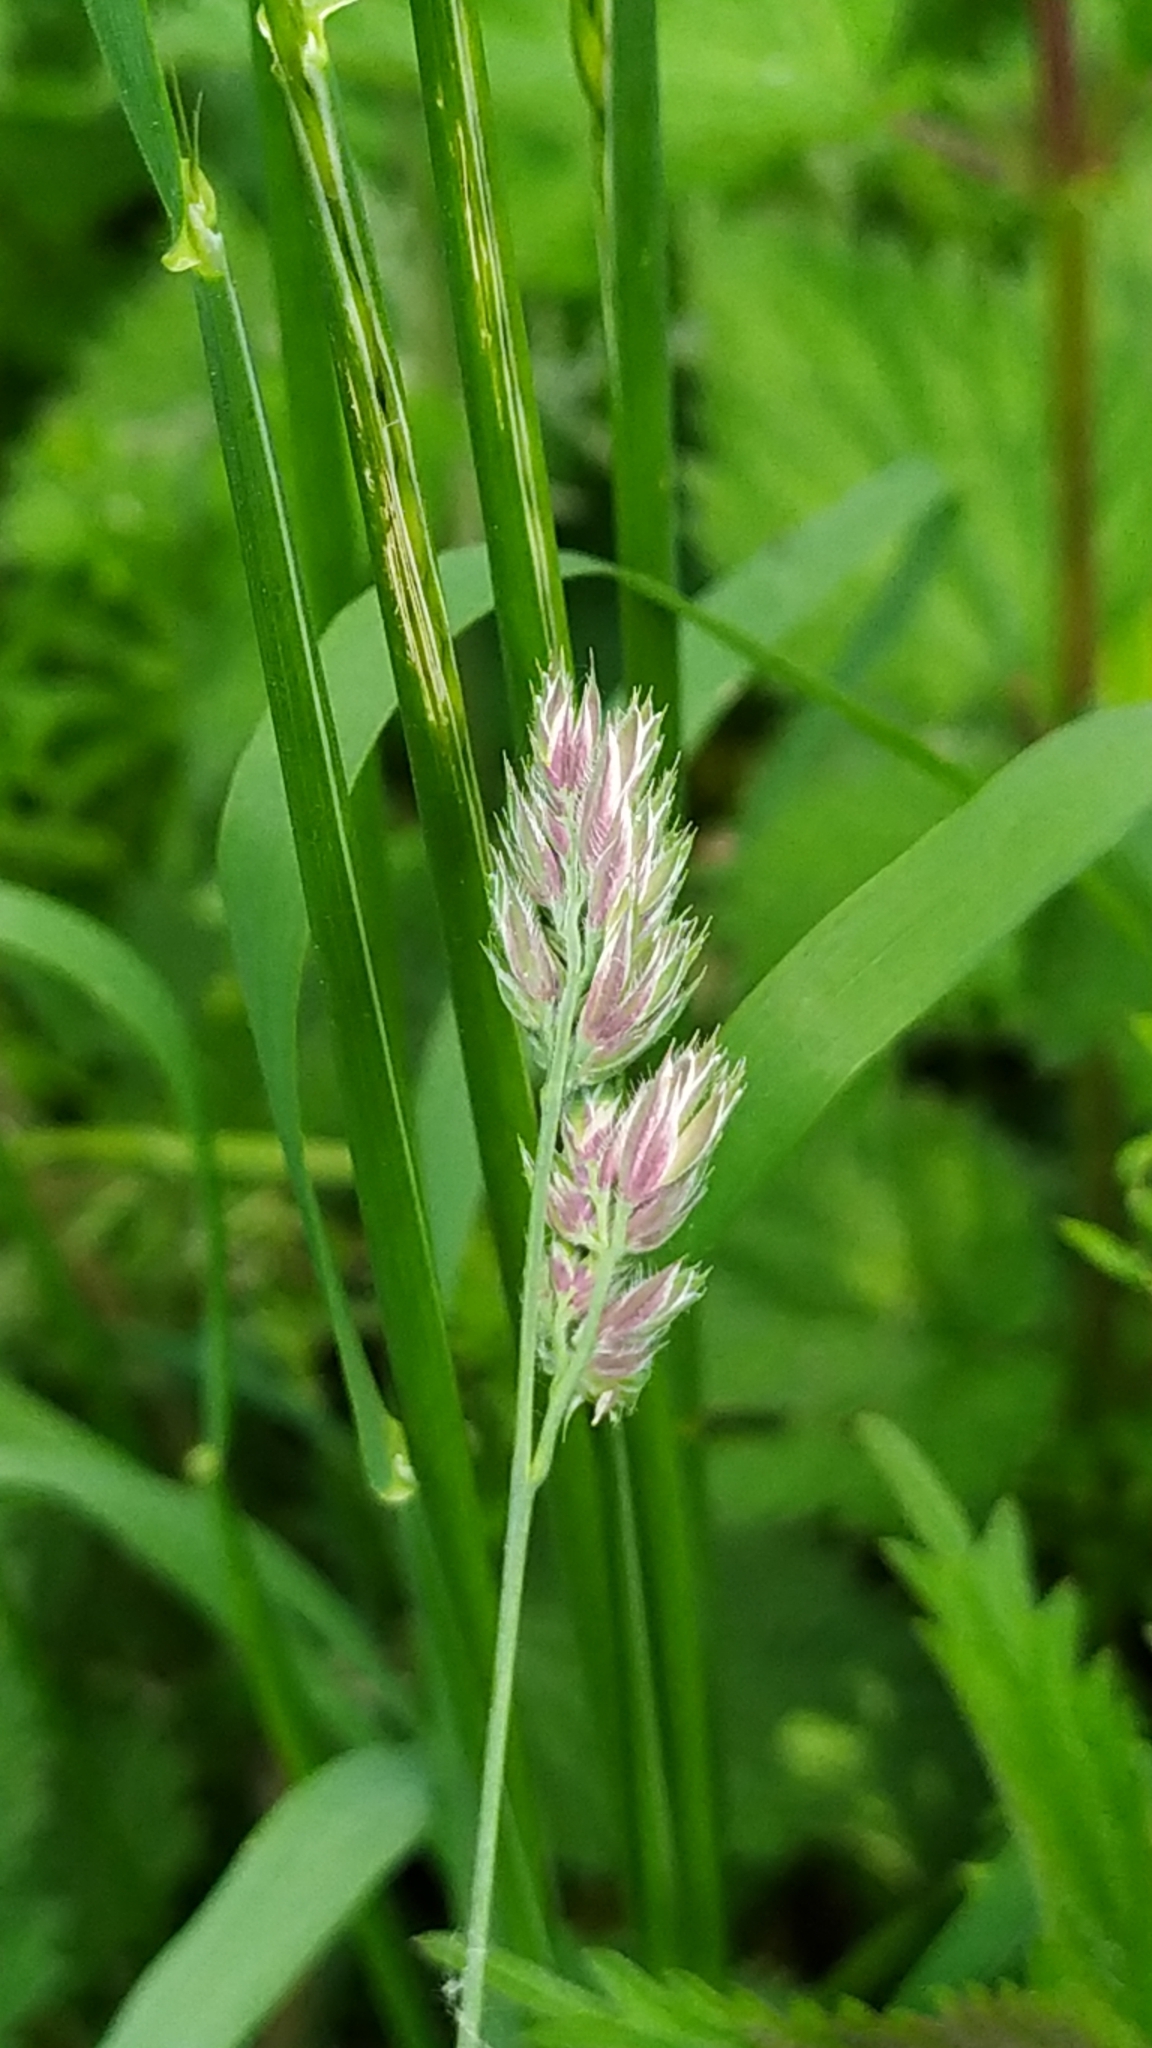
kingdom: Plantae
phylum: Tracheophyta
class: Liliopsida
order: Poales
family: Poaceae
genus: Dactylis
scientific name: Dactylis glomerata
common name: Orchardgrass
